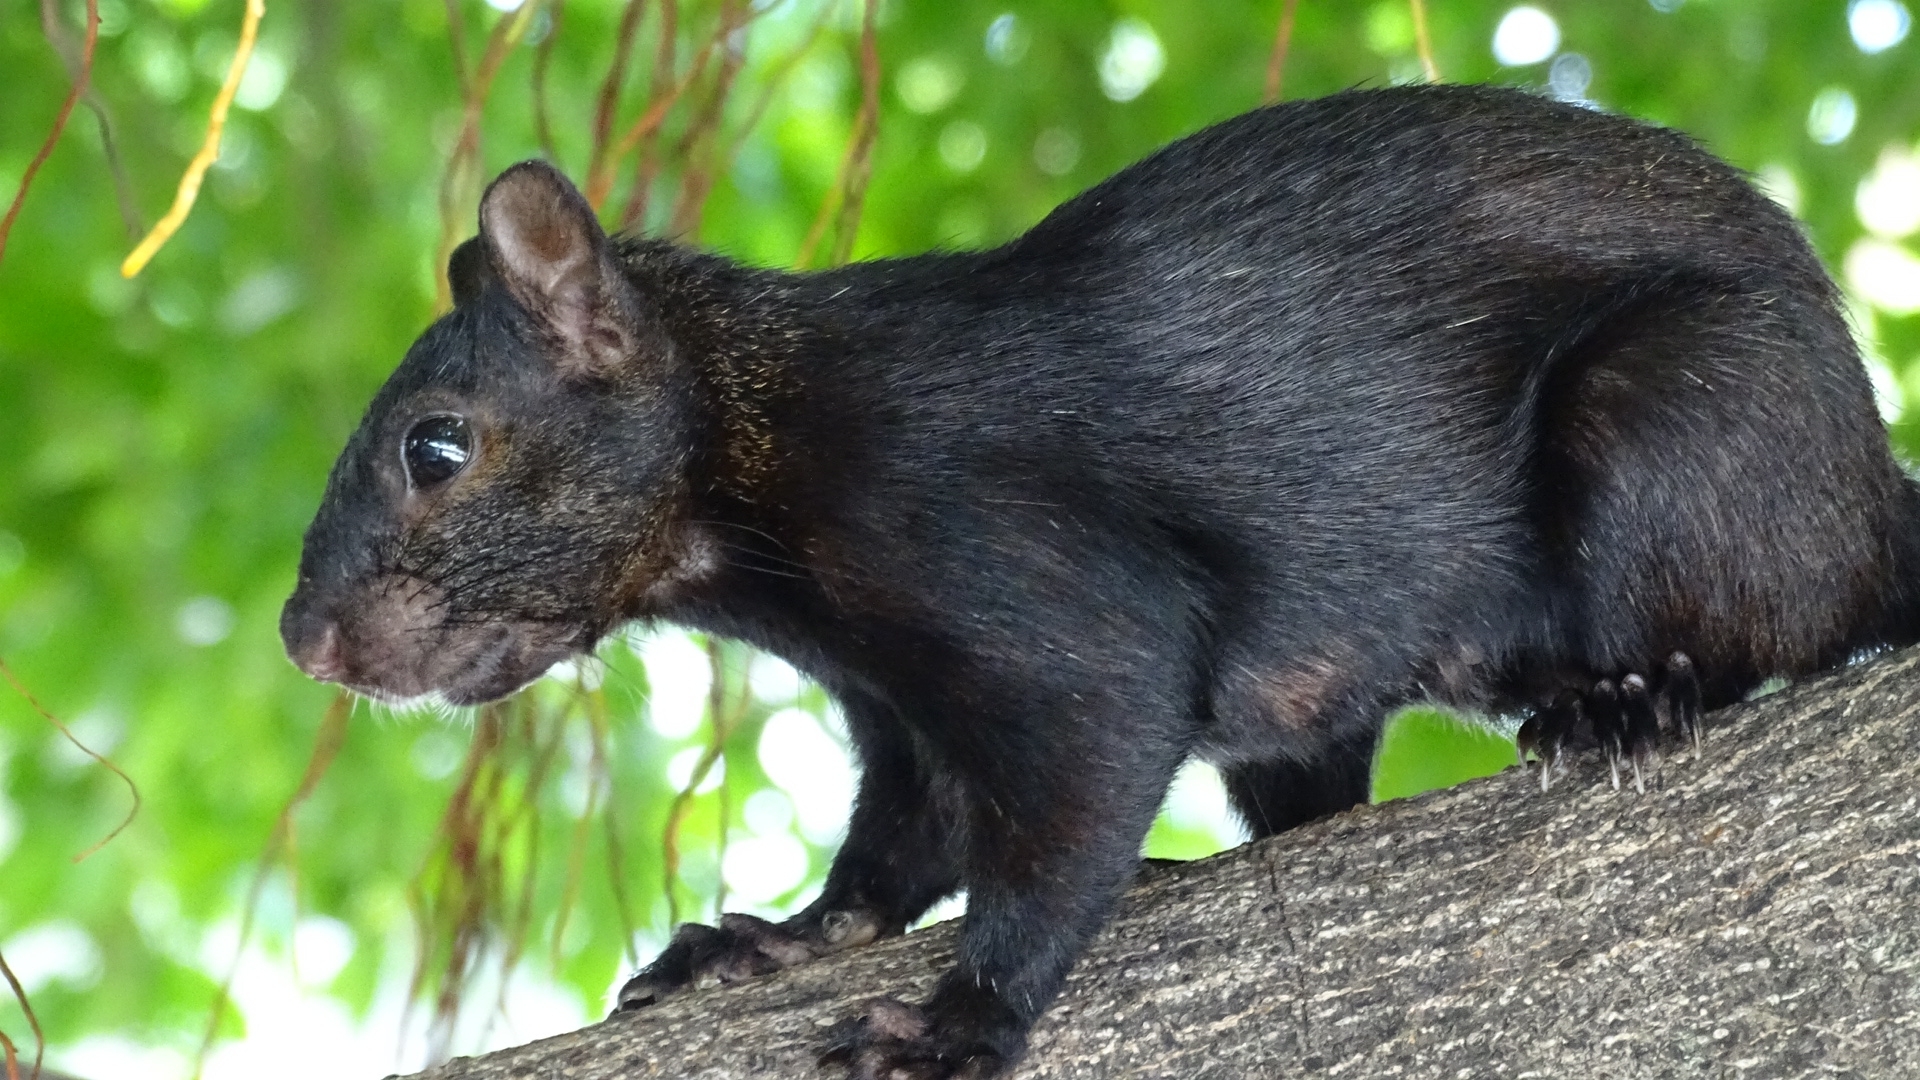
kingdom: Animalia
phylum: Chordata
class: Mammalia
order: Rodentia
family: Sciuridae
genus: Sciurus
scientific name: Sciurus aureogaster
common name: Red-bellied squirrel
